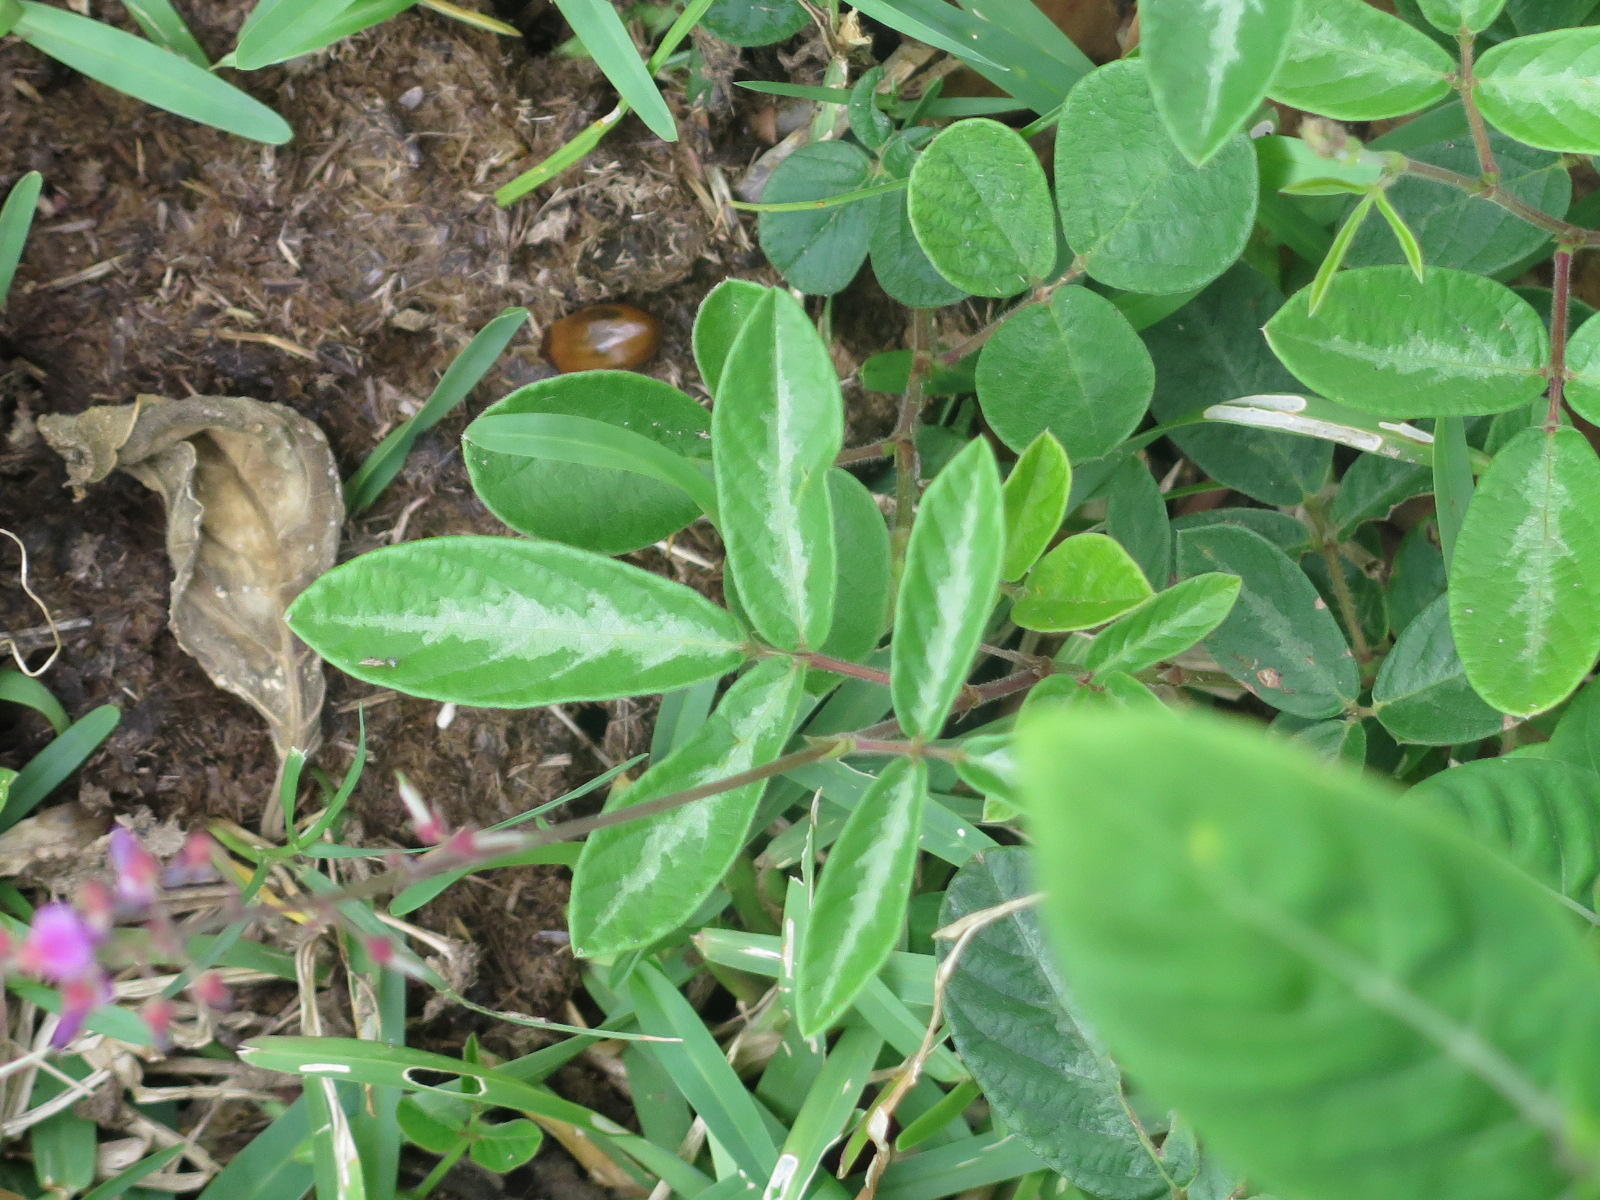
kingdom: Plantae
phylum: Tracheophyta
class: Magnoliopsida
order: Fabales
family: Fabaceae
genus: Desmodium
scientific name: Desmodium incanum
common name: Tickclover
